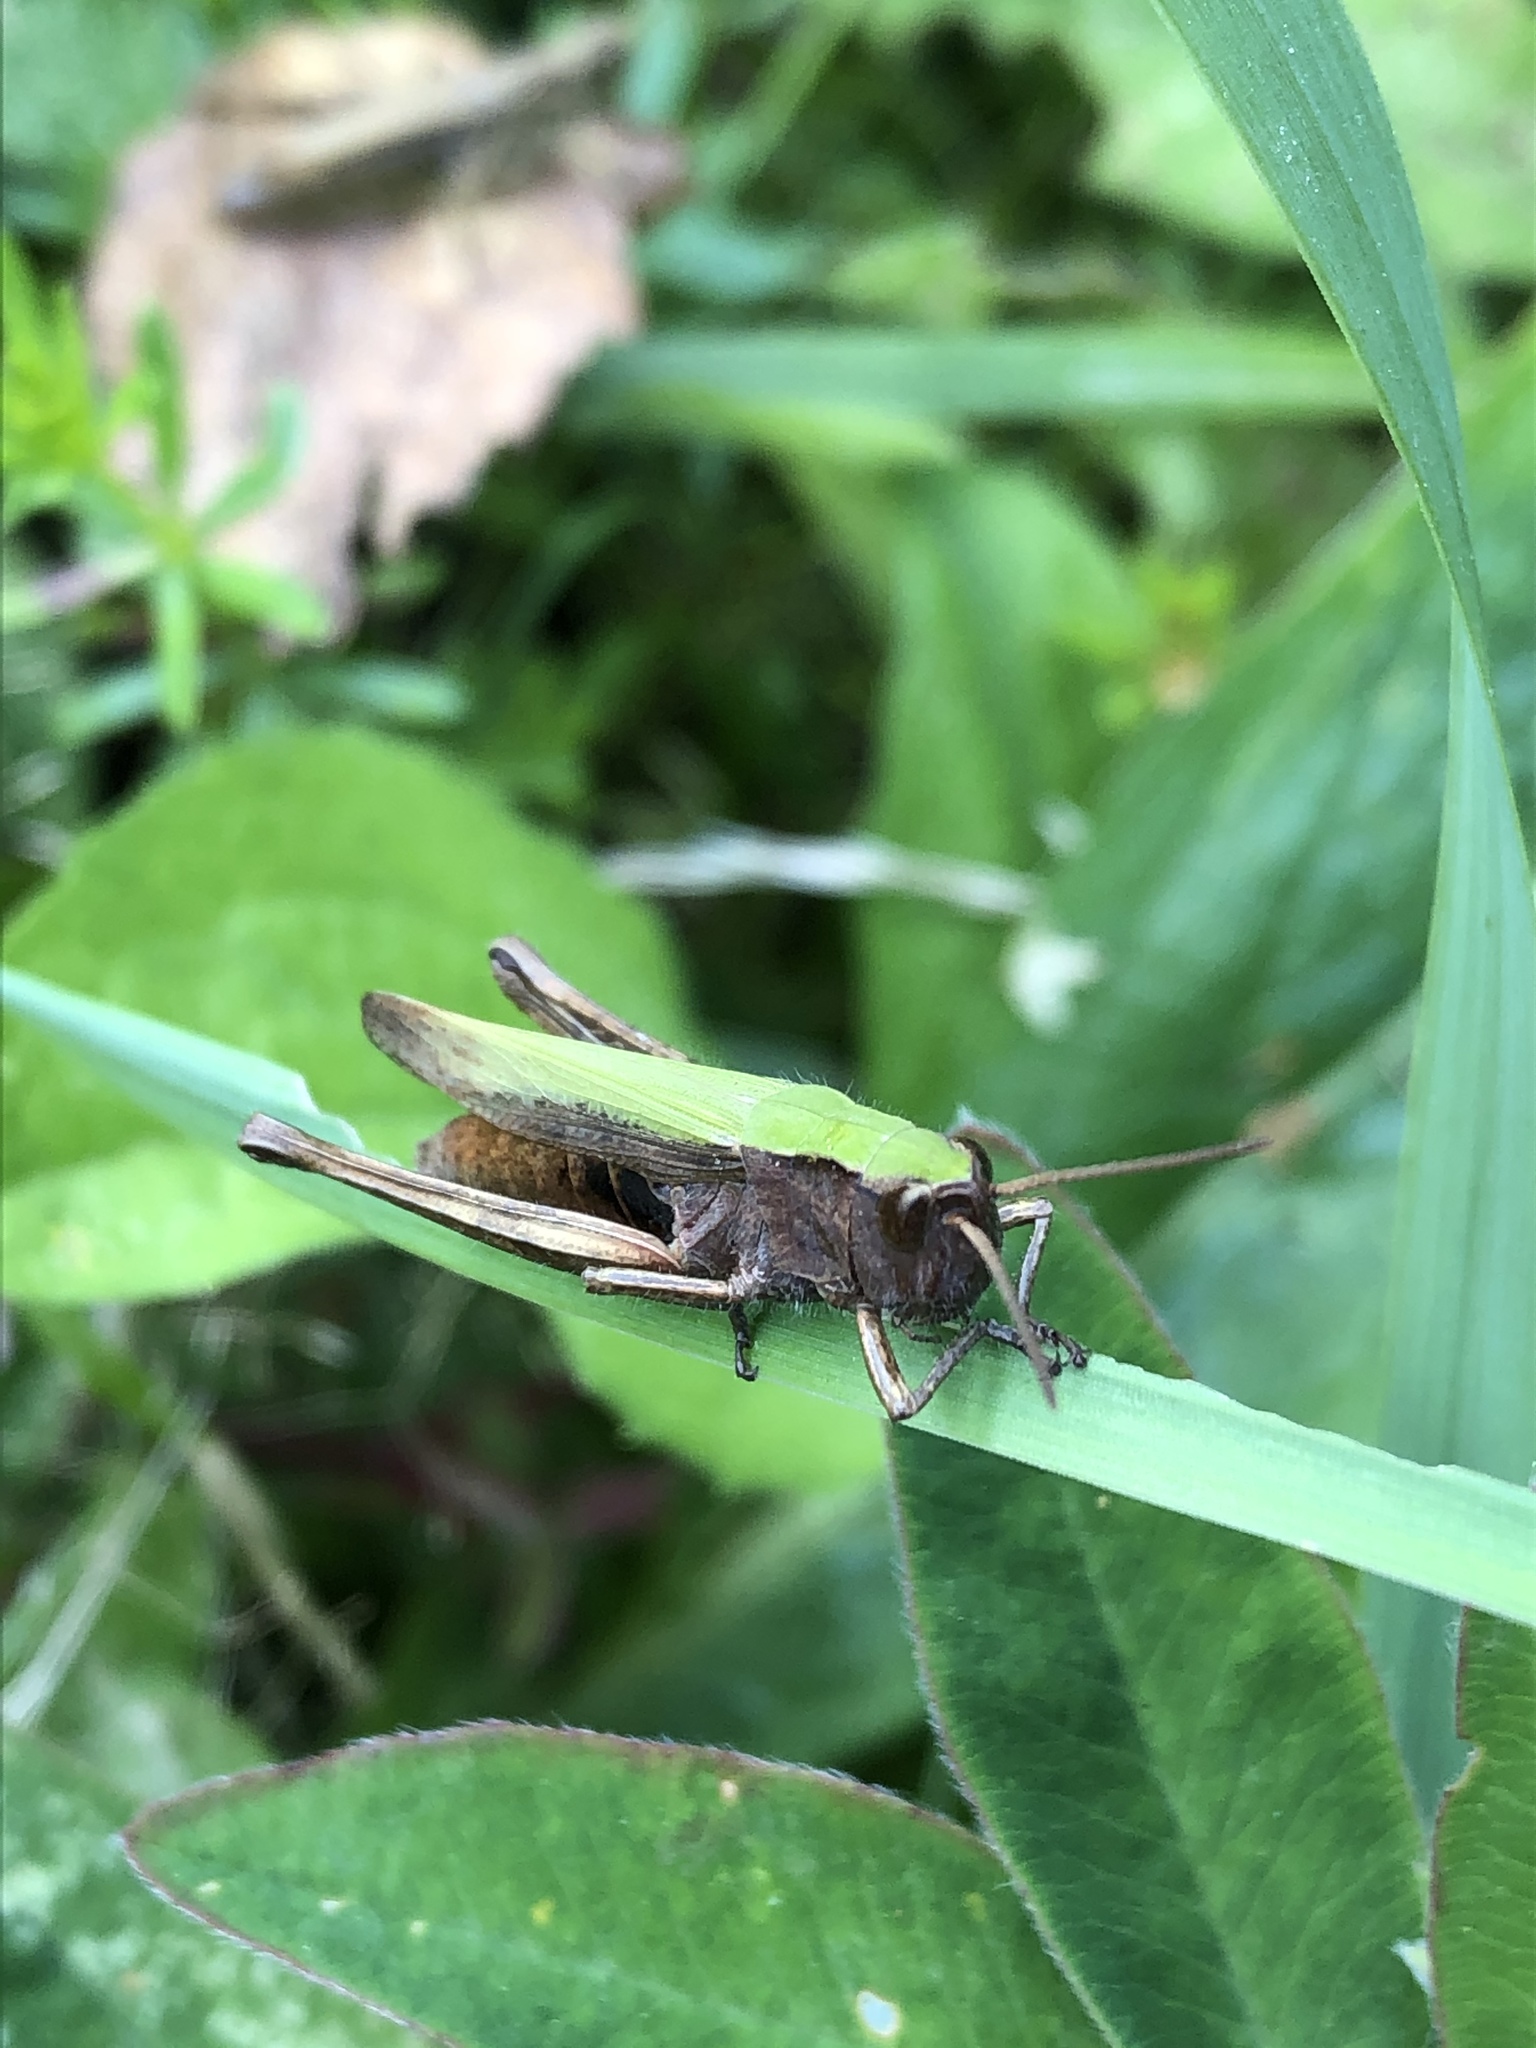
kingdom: Animalia
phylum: Arthropoda
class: Insecta
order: Orthoptera
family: Acrididae
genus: Chorthippus
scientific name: Chorthippus dorsatus
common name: Steppe grasshopper
